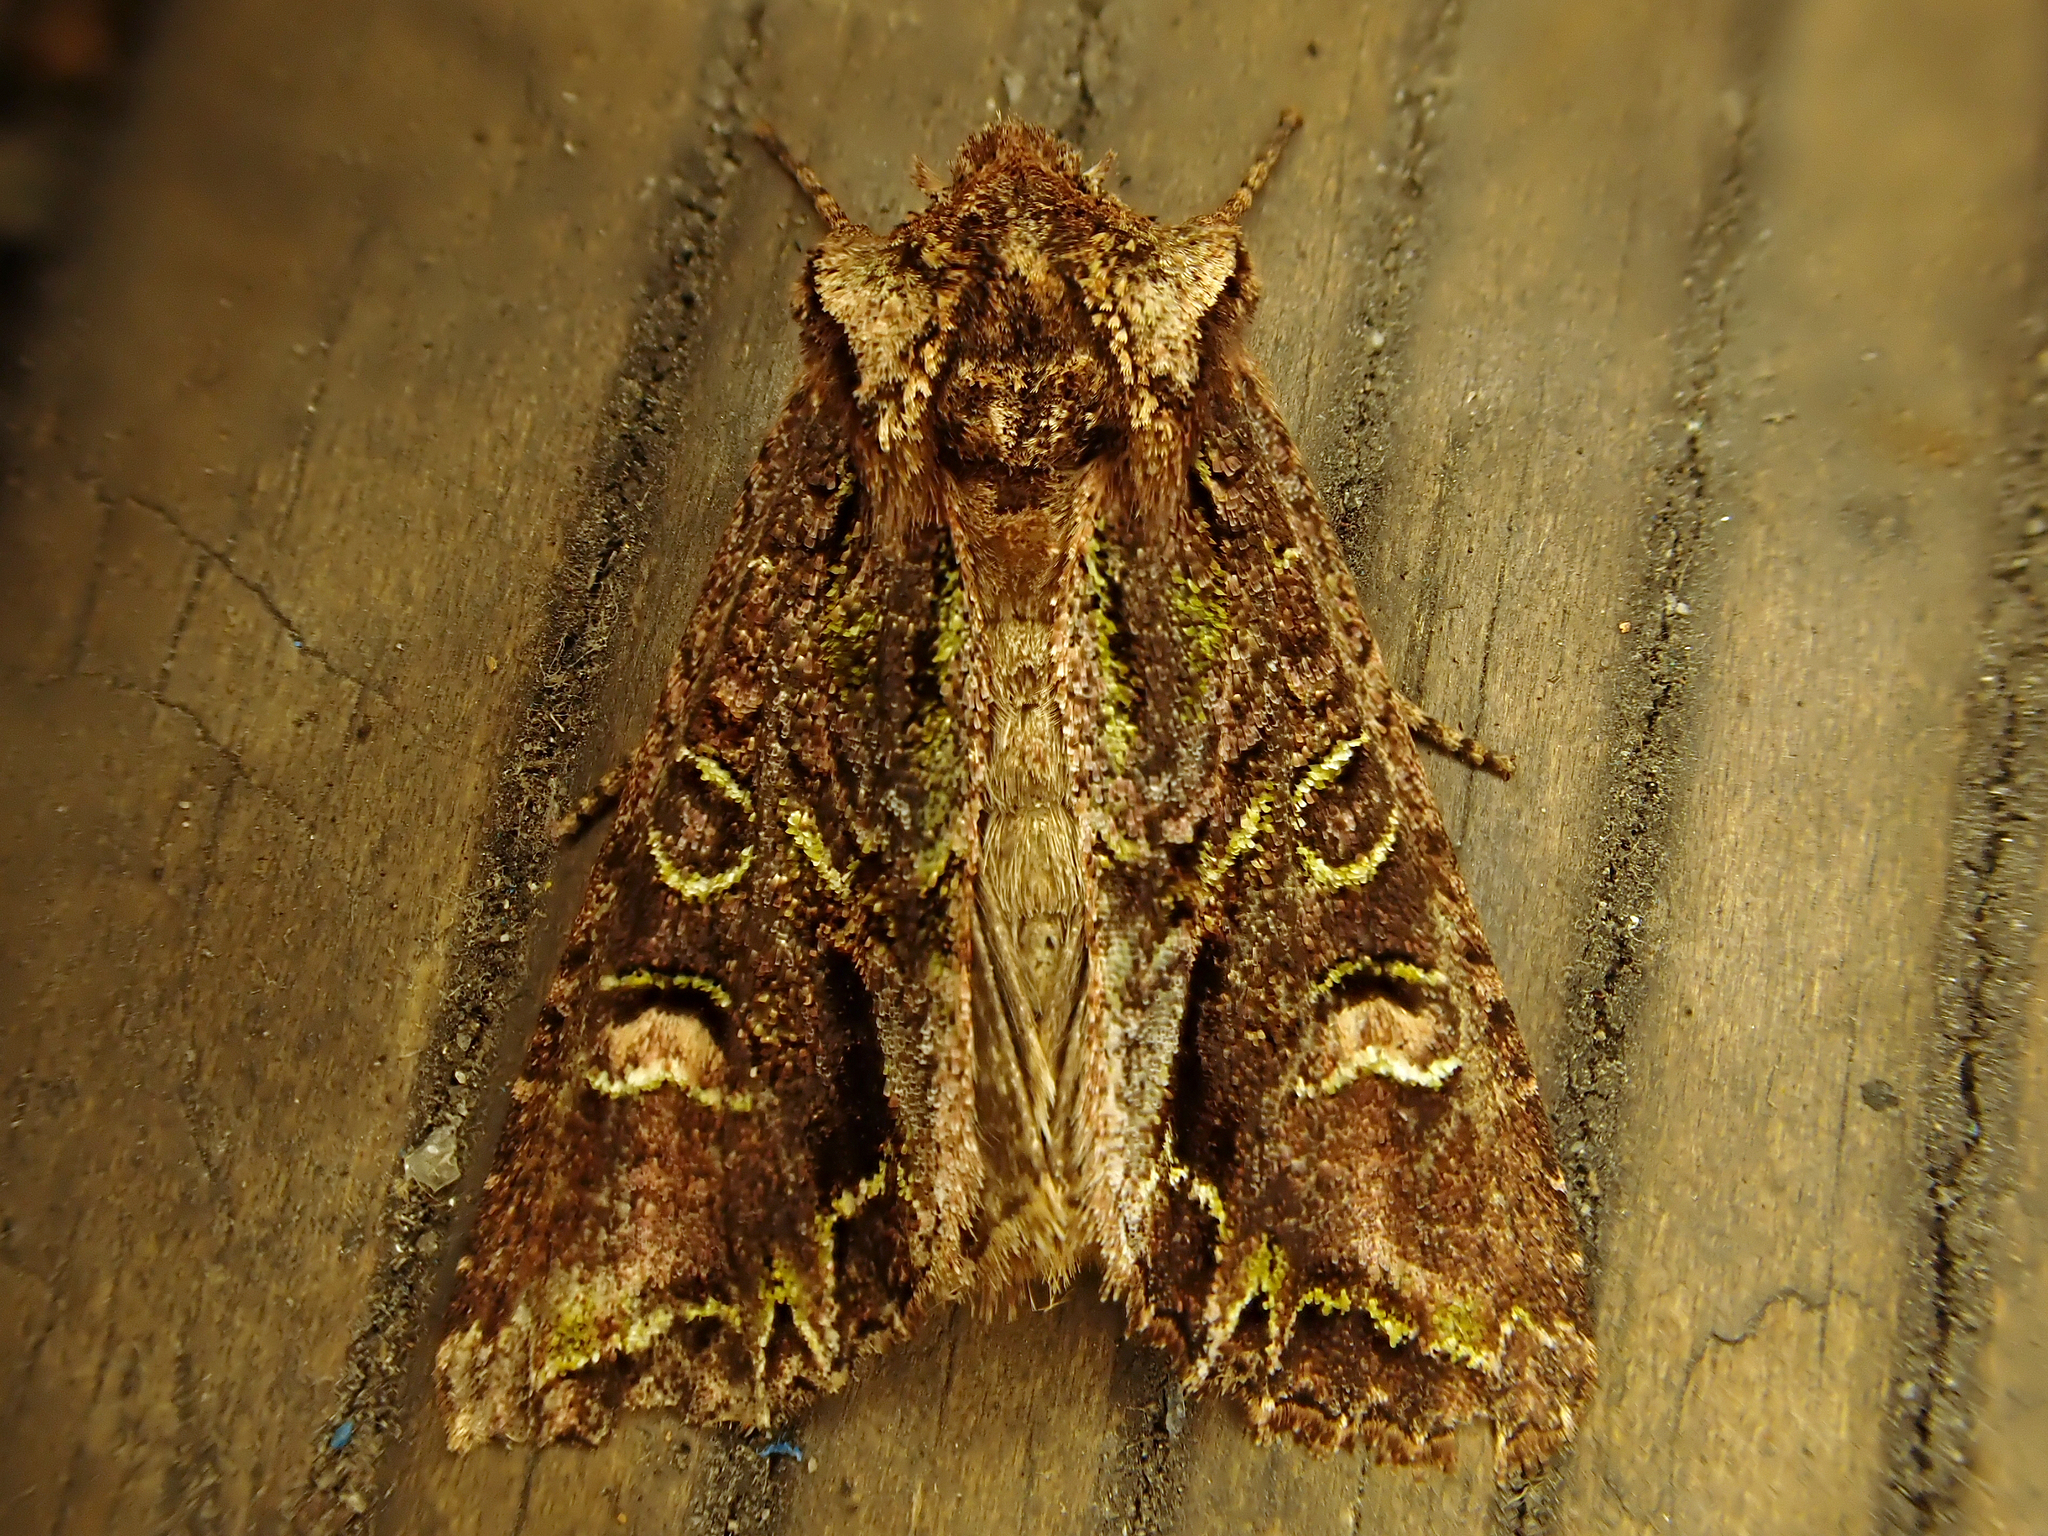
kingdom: Animalia
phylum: Arthropoda
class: Insecta
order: Lepidoptera
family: Noctuidae
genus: Ichneutica
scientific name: Ichneutica insignis
